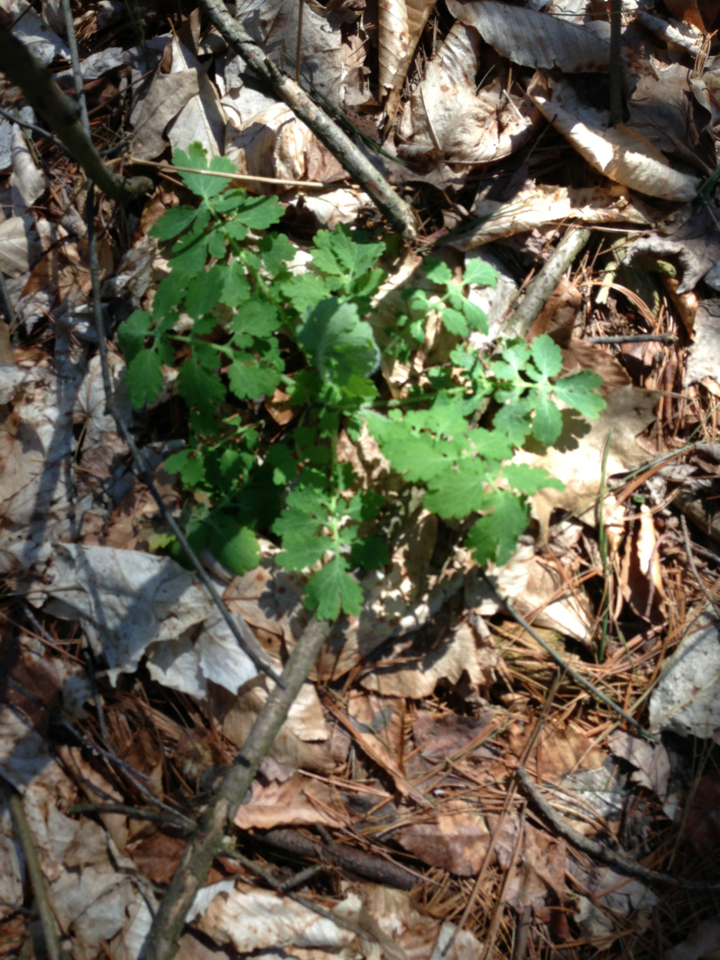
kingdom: Plantae
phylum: Tracheophyta
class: Magnoliopsida
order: Ranunculales
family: Papaveraceae
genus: Chelidonium
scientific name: Chelidonium majus
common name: Greater celandine
